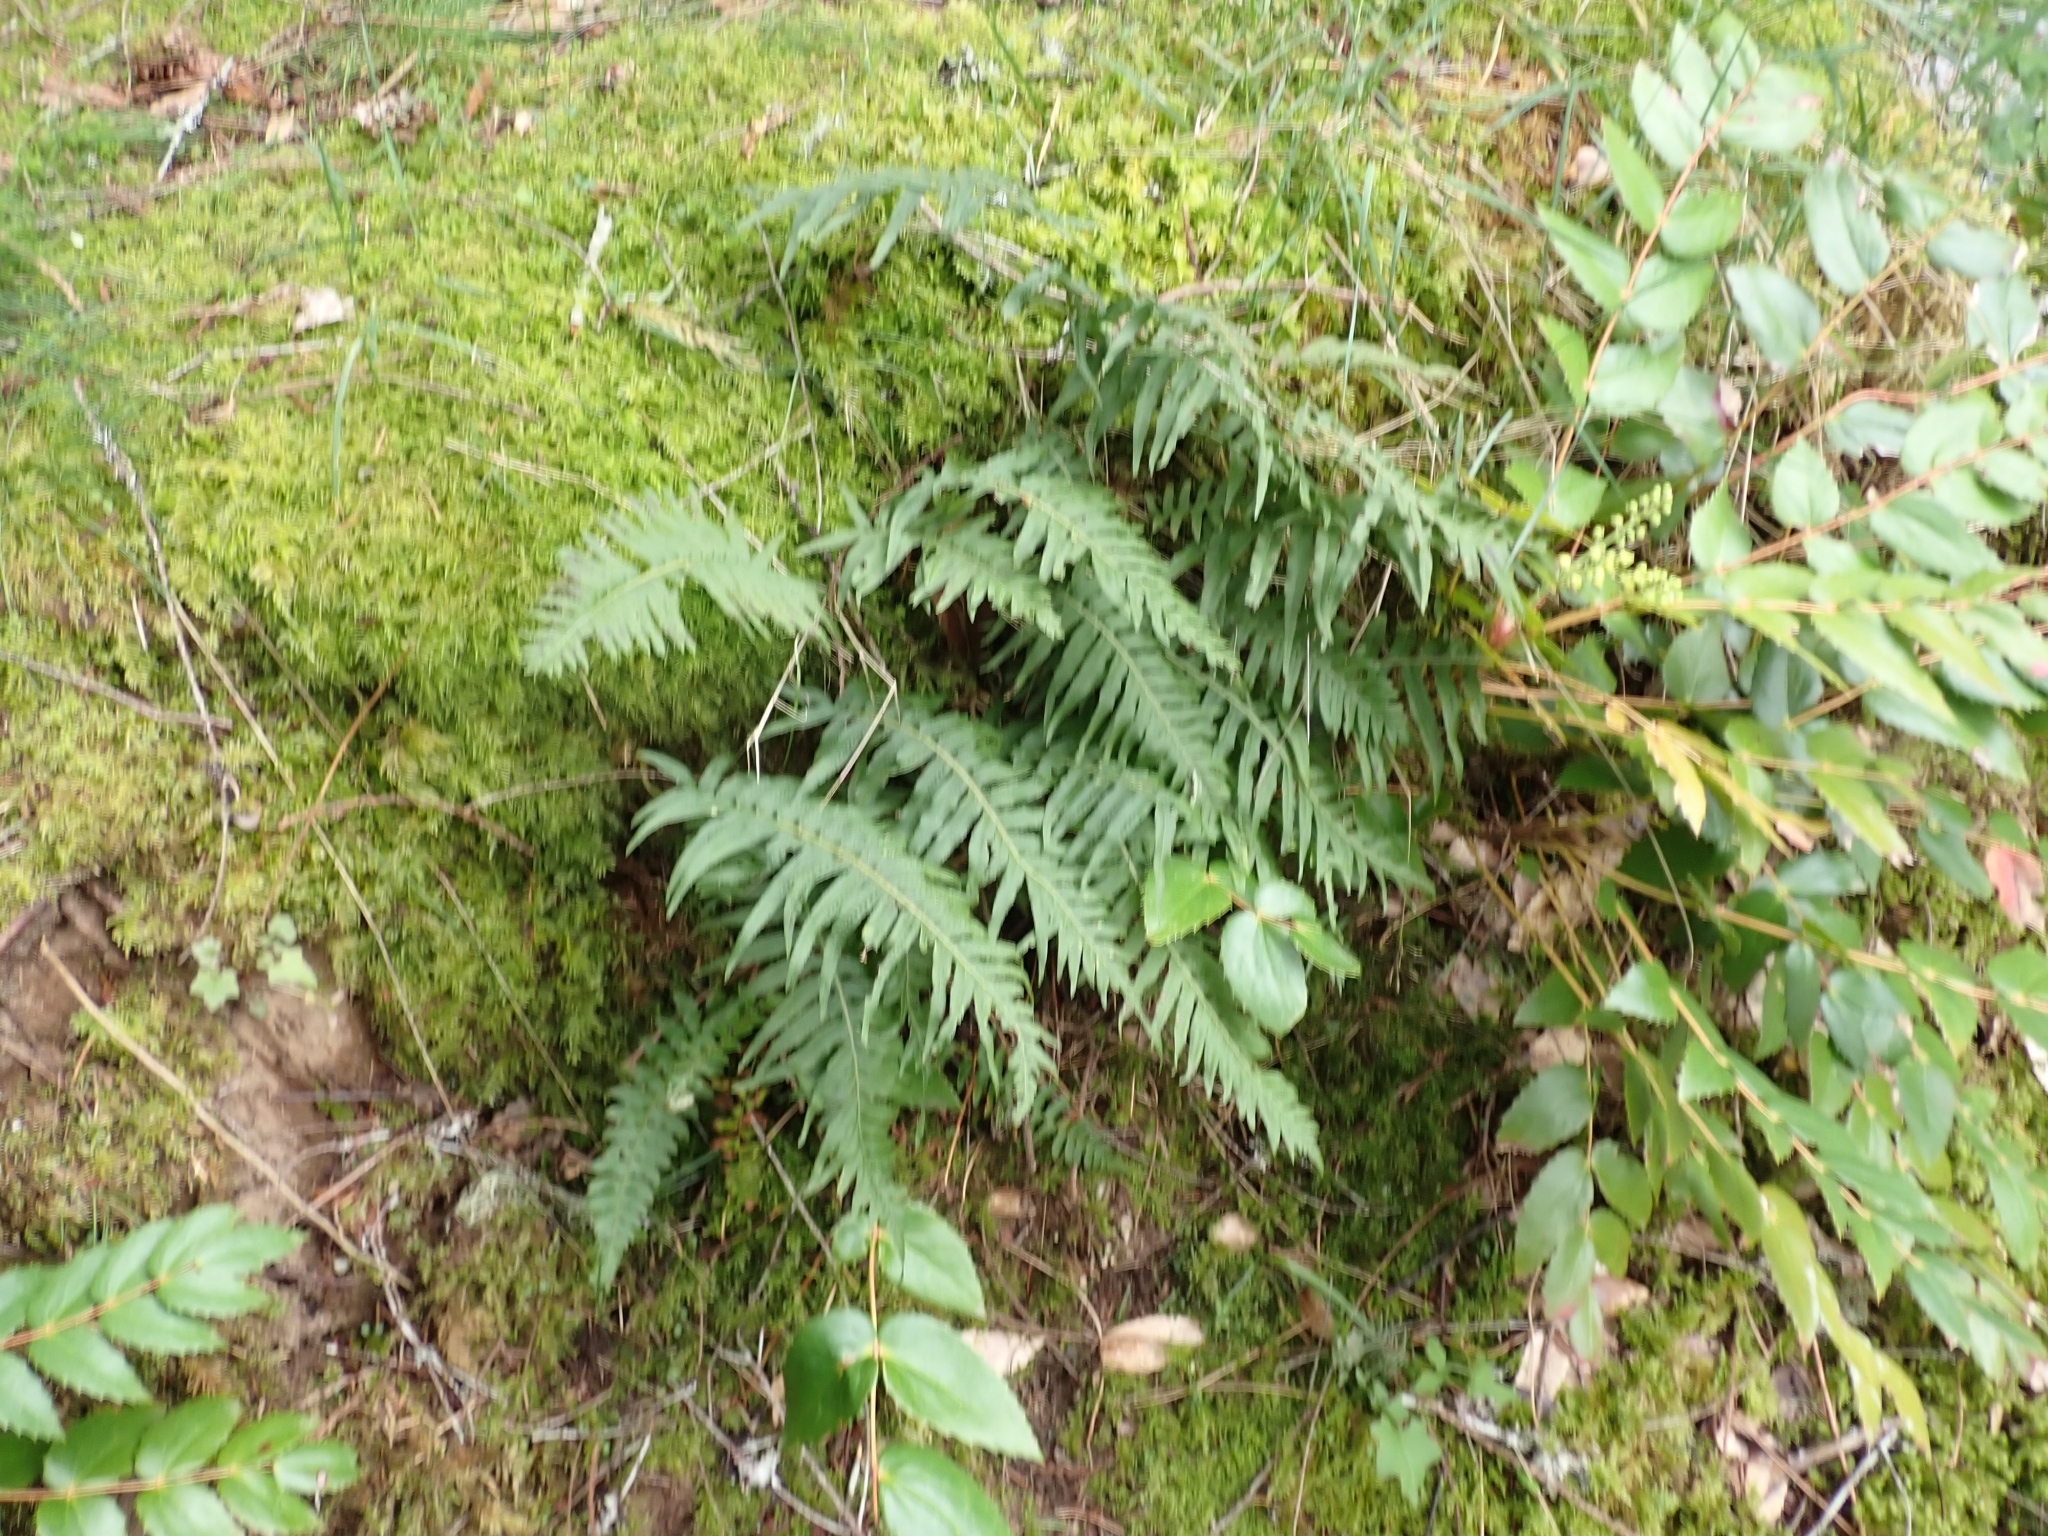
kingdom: Plantae
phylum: Tracheophyta
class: Polypodiopsida
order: Polypodiales
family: Polypodiaceae
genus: Polypodium
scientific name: Polypodium glycyrrhiza
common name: Licorice fern
